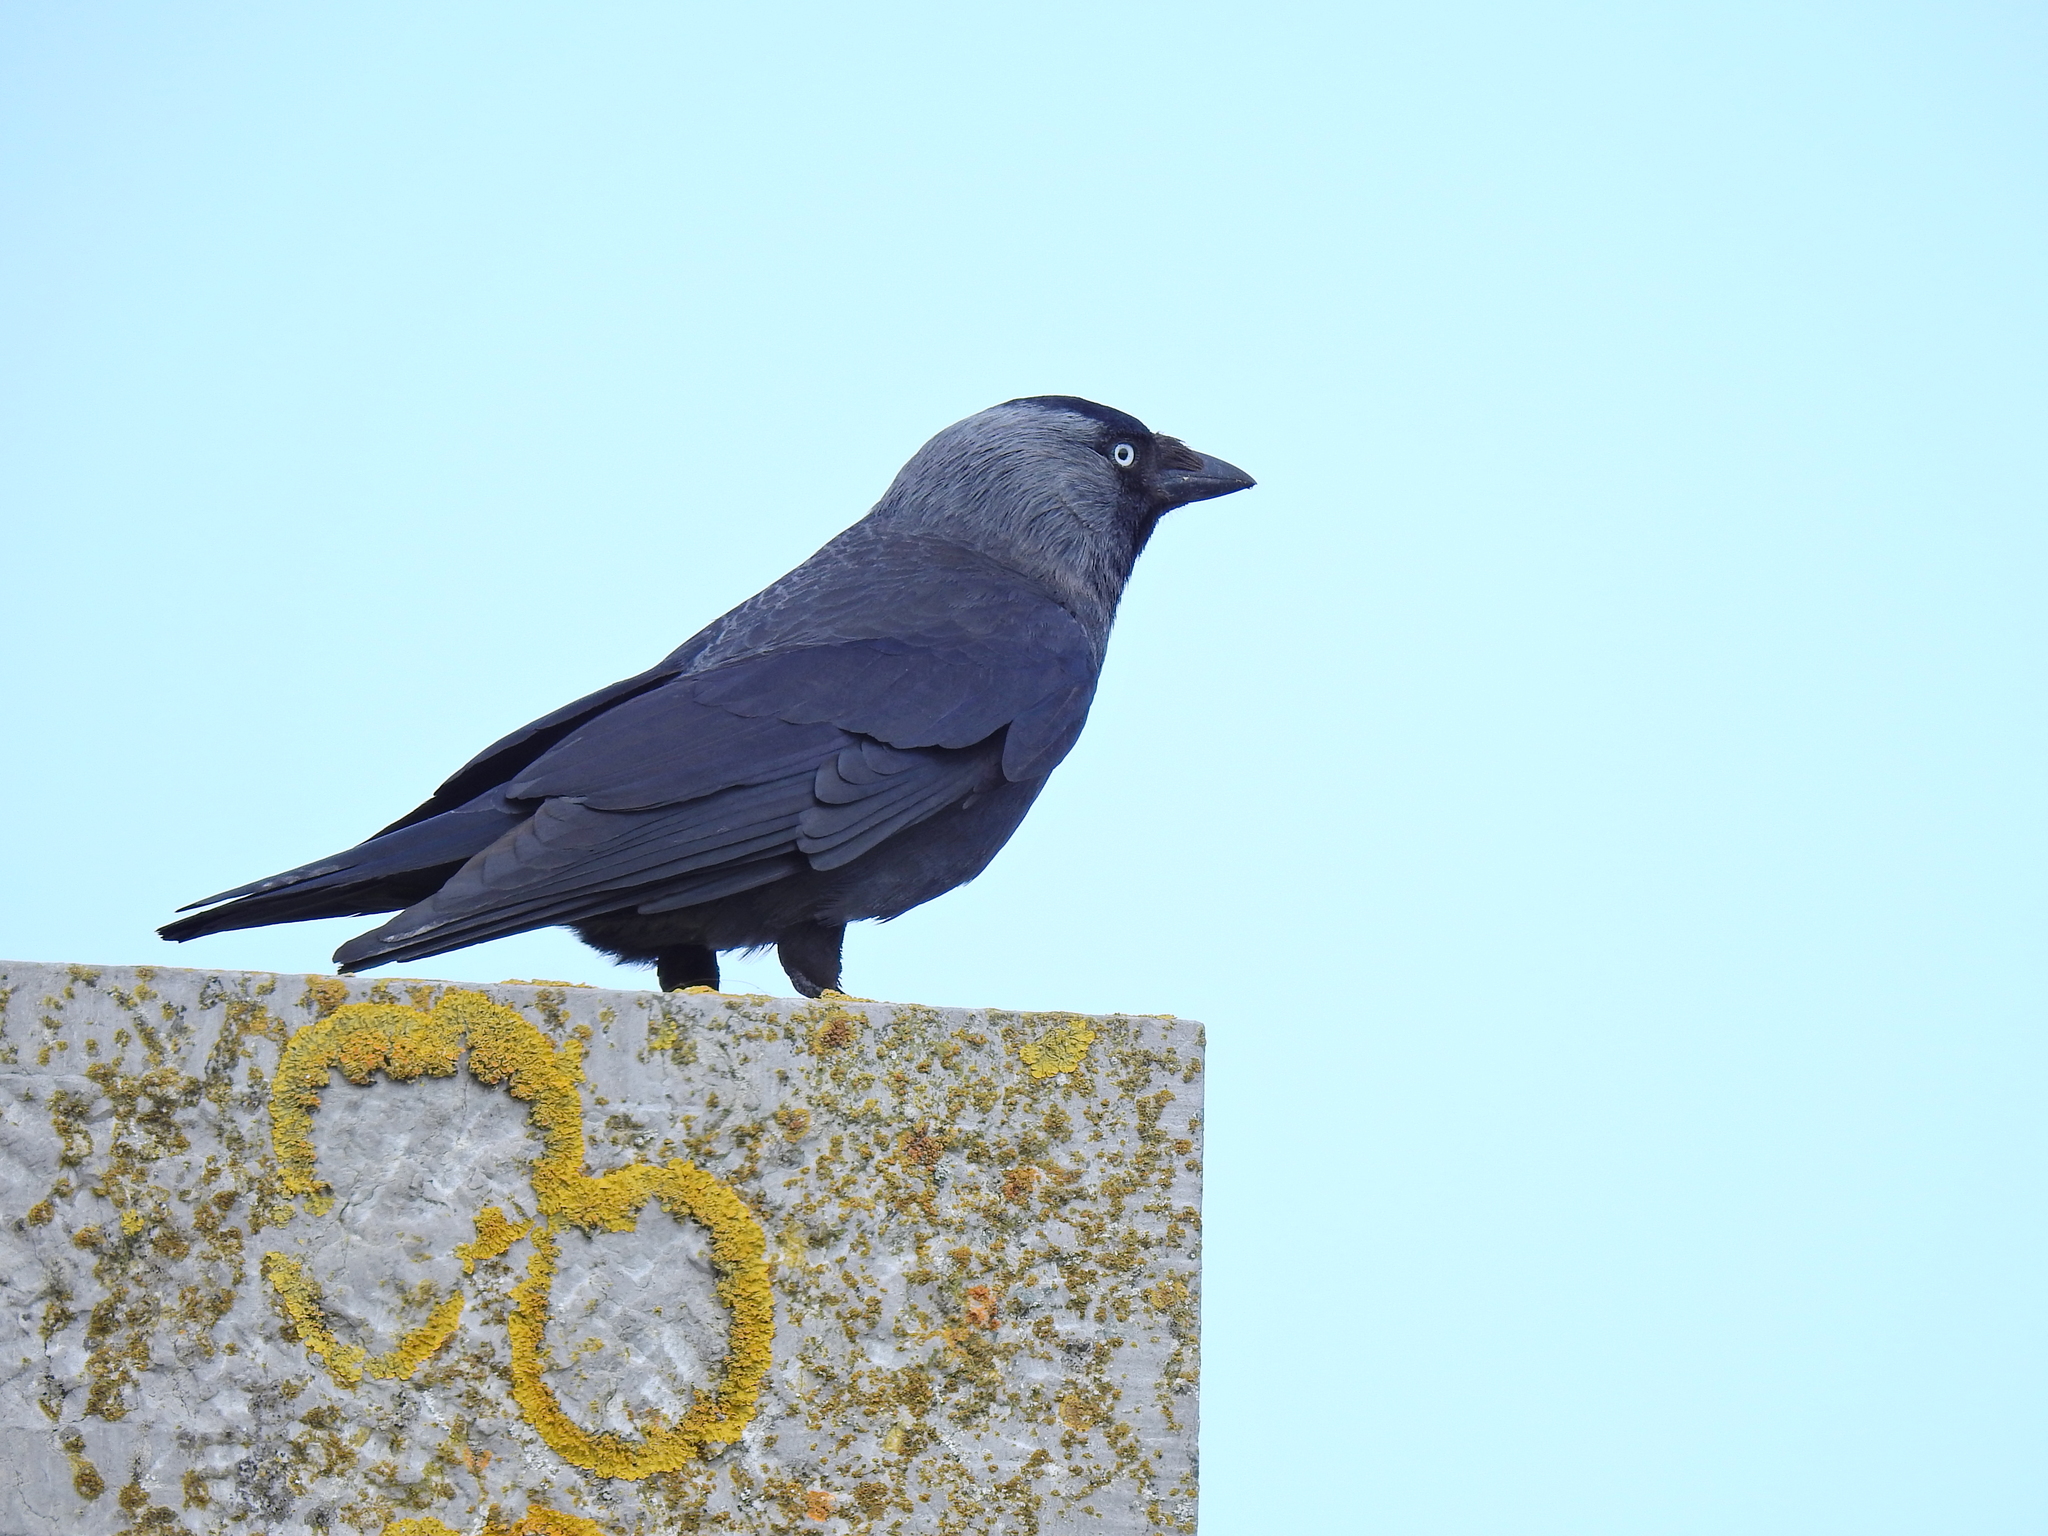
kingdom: Animalia
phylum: Chordata
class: Aves
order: Passeriformes
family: Corvidae
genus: Coloeus
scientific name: Coloeus monedula
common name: Western jackdaw
